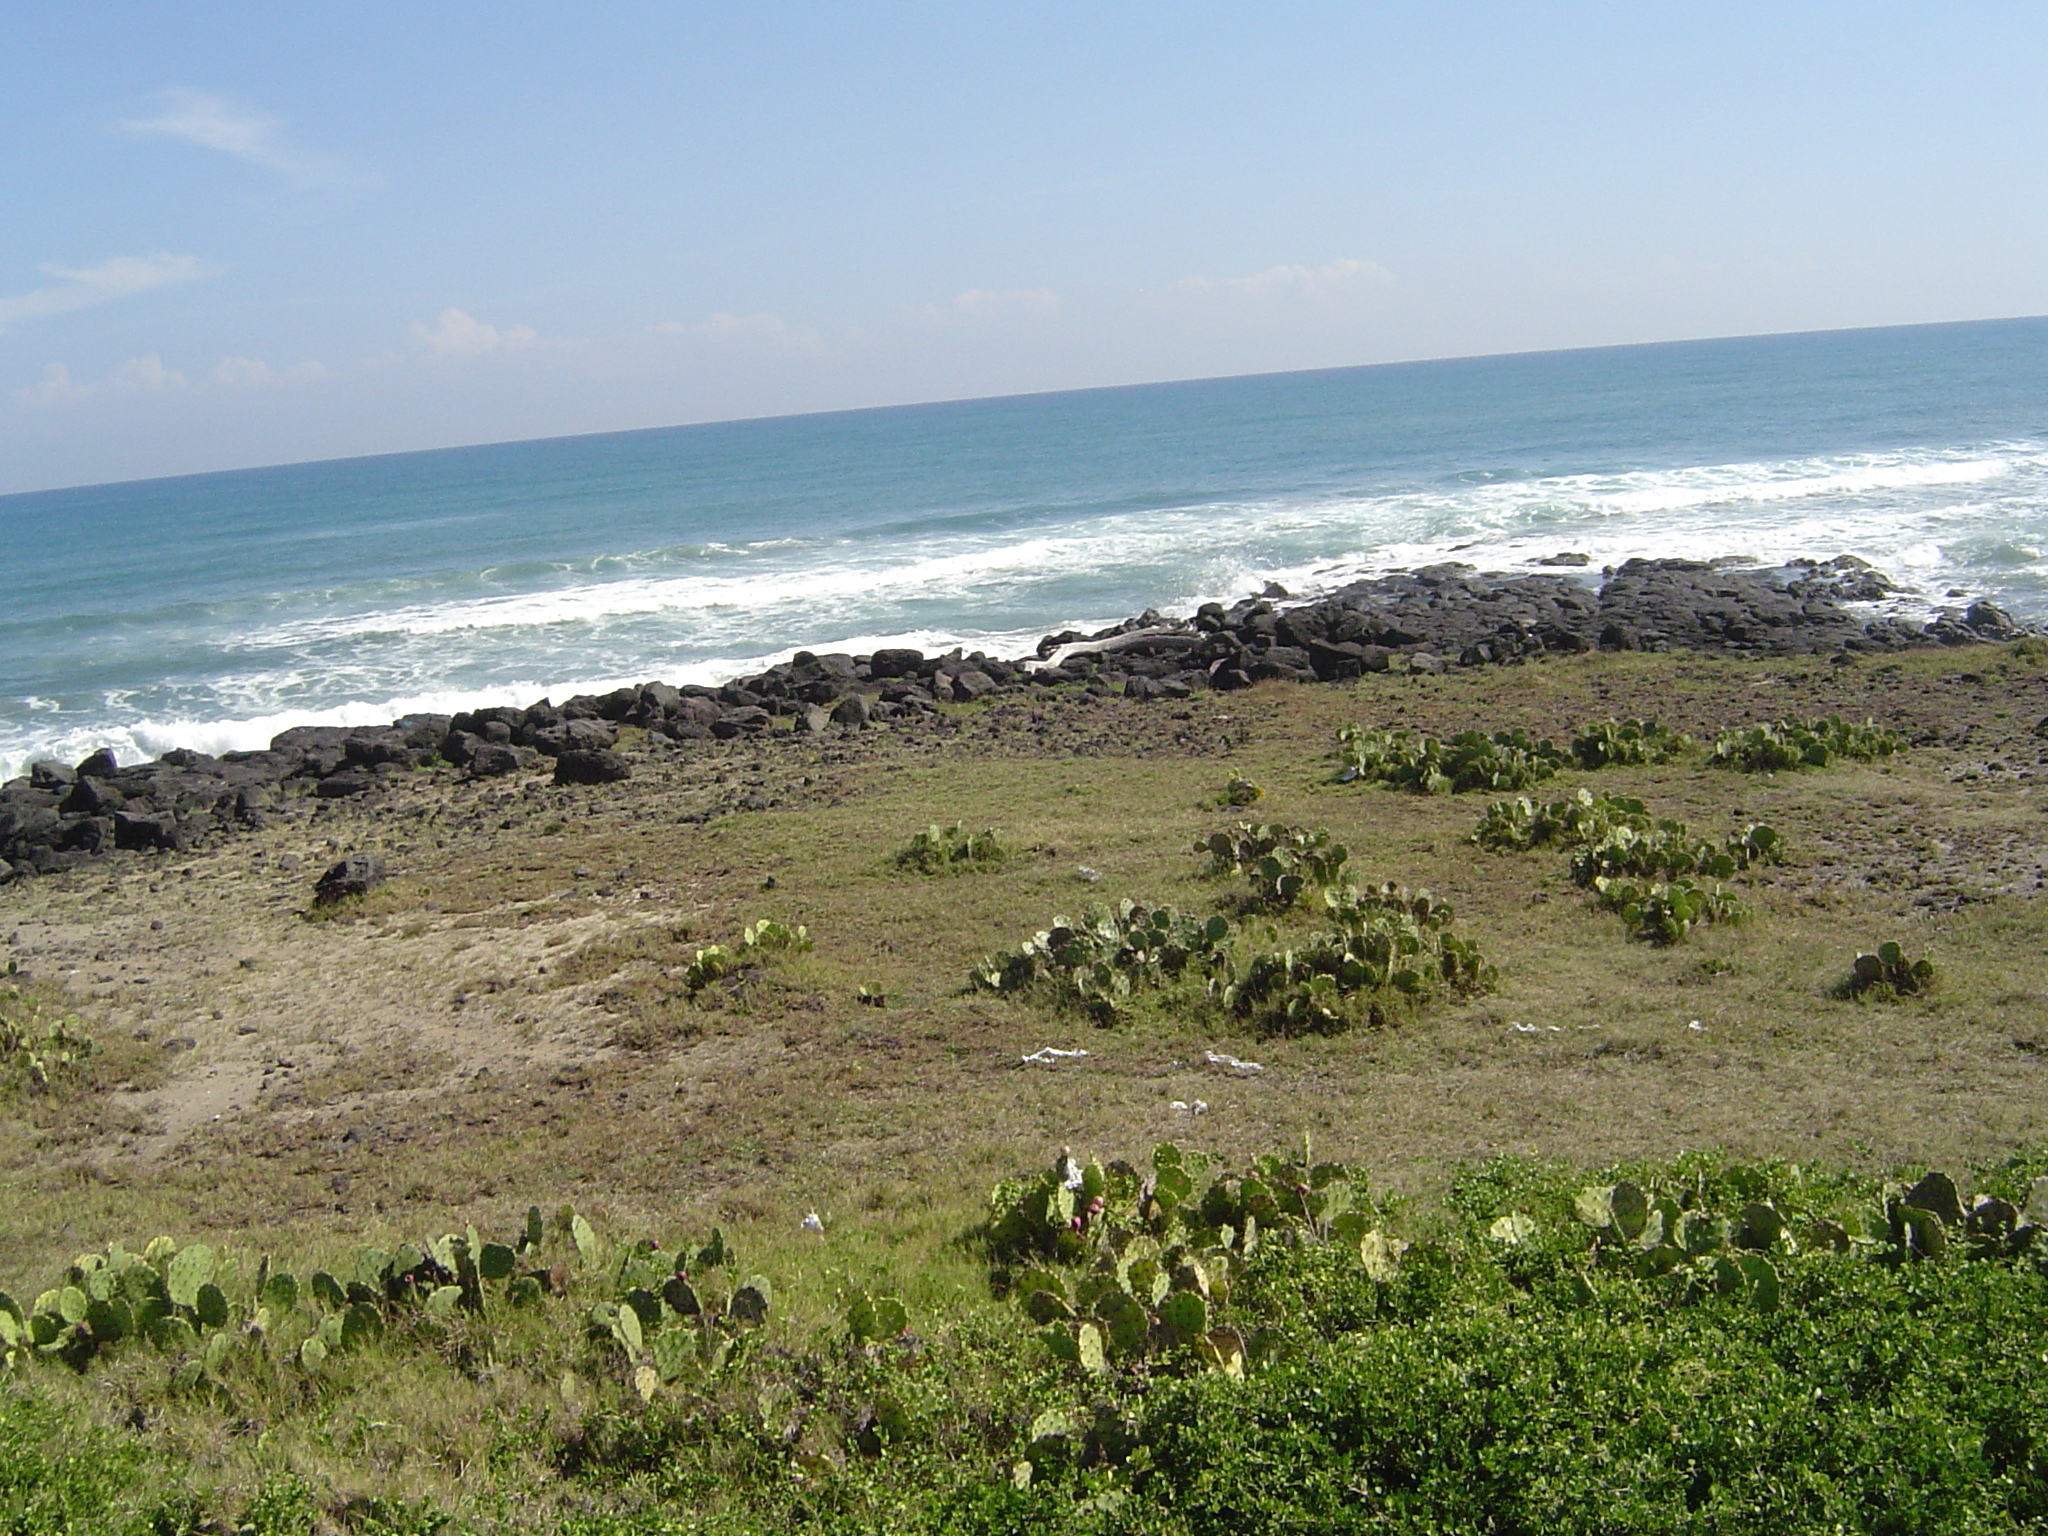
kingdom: Plantae
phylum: Tracheophyta
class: Magnoliopsida
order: Caryophyllales
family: Cactaceae
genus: Opuntia
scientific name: Opuntia stricta
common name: Erect pricklypear
